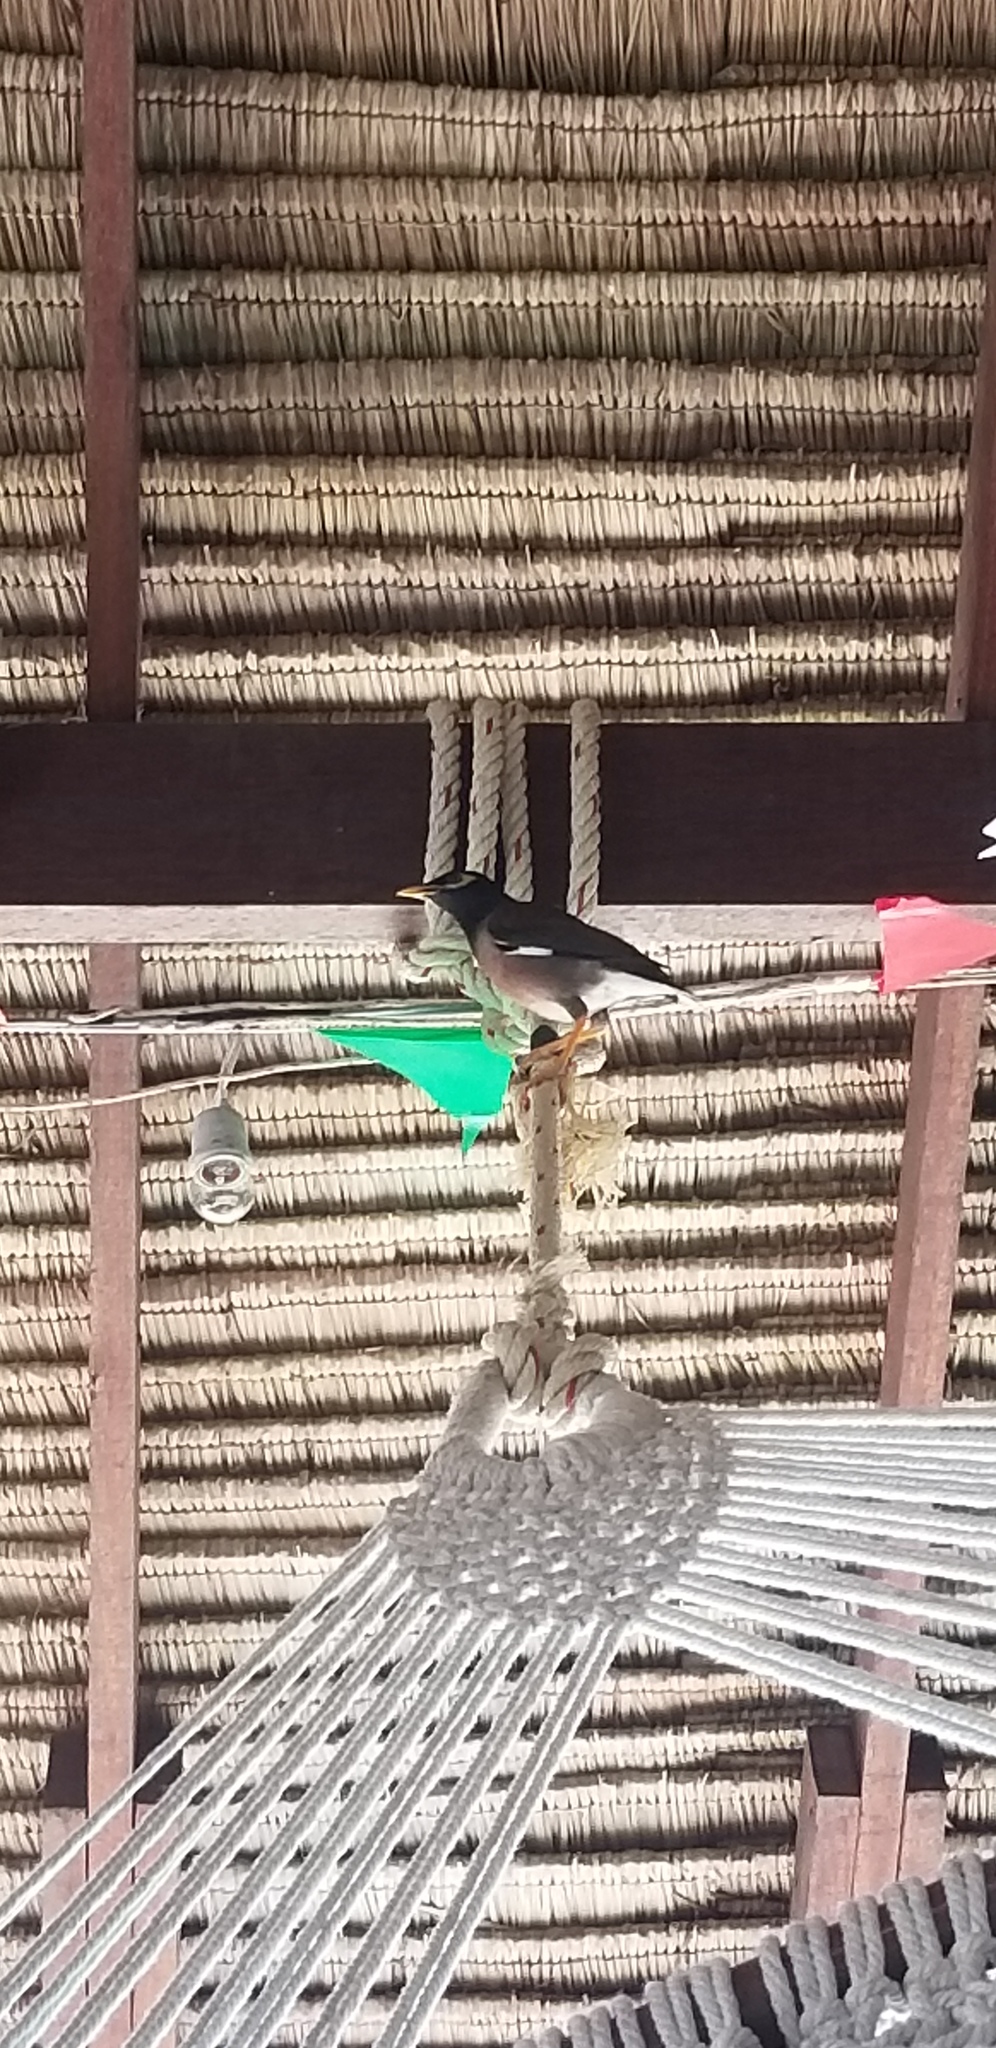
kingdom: Animalia
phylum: Chordata
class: Aves
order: Passeriformes
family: Sturnidae
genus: Acridotheres
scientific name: Acridotheres tristis
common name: Common myna
